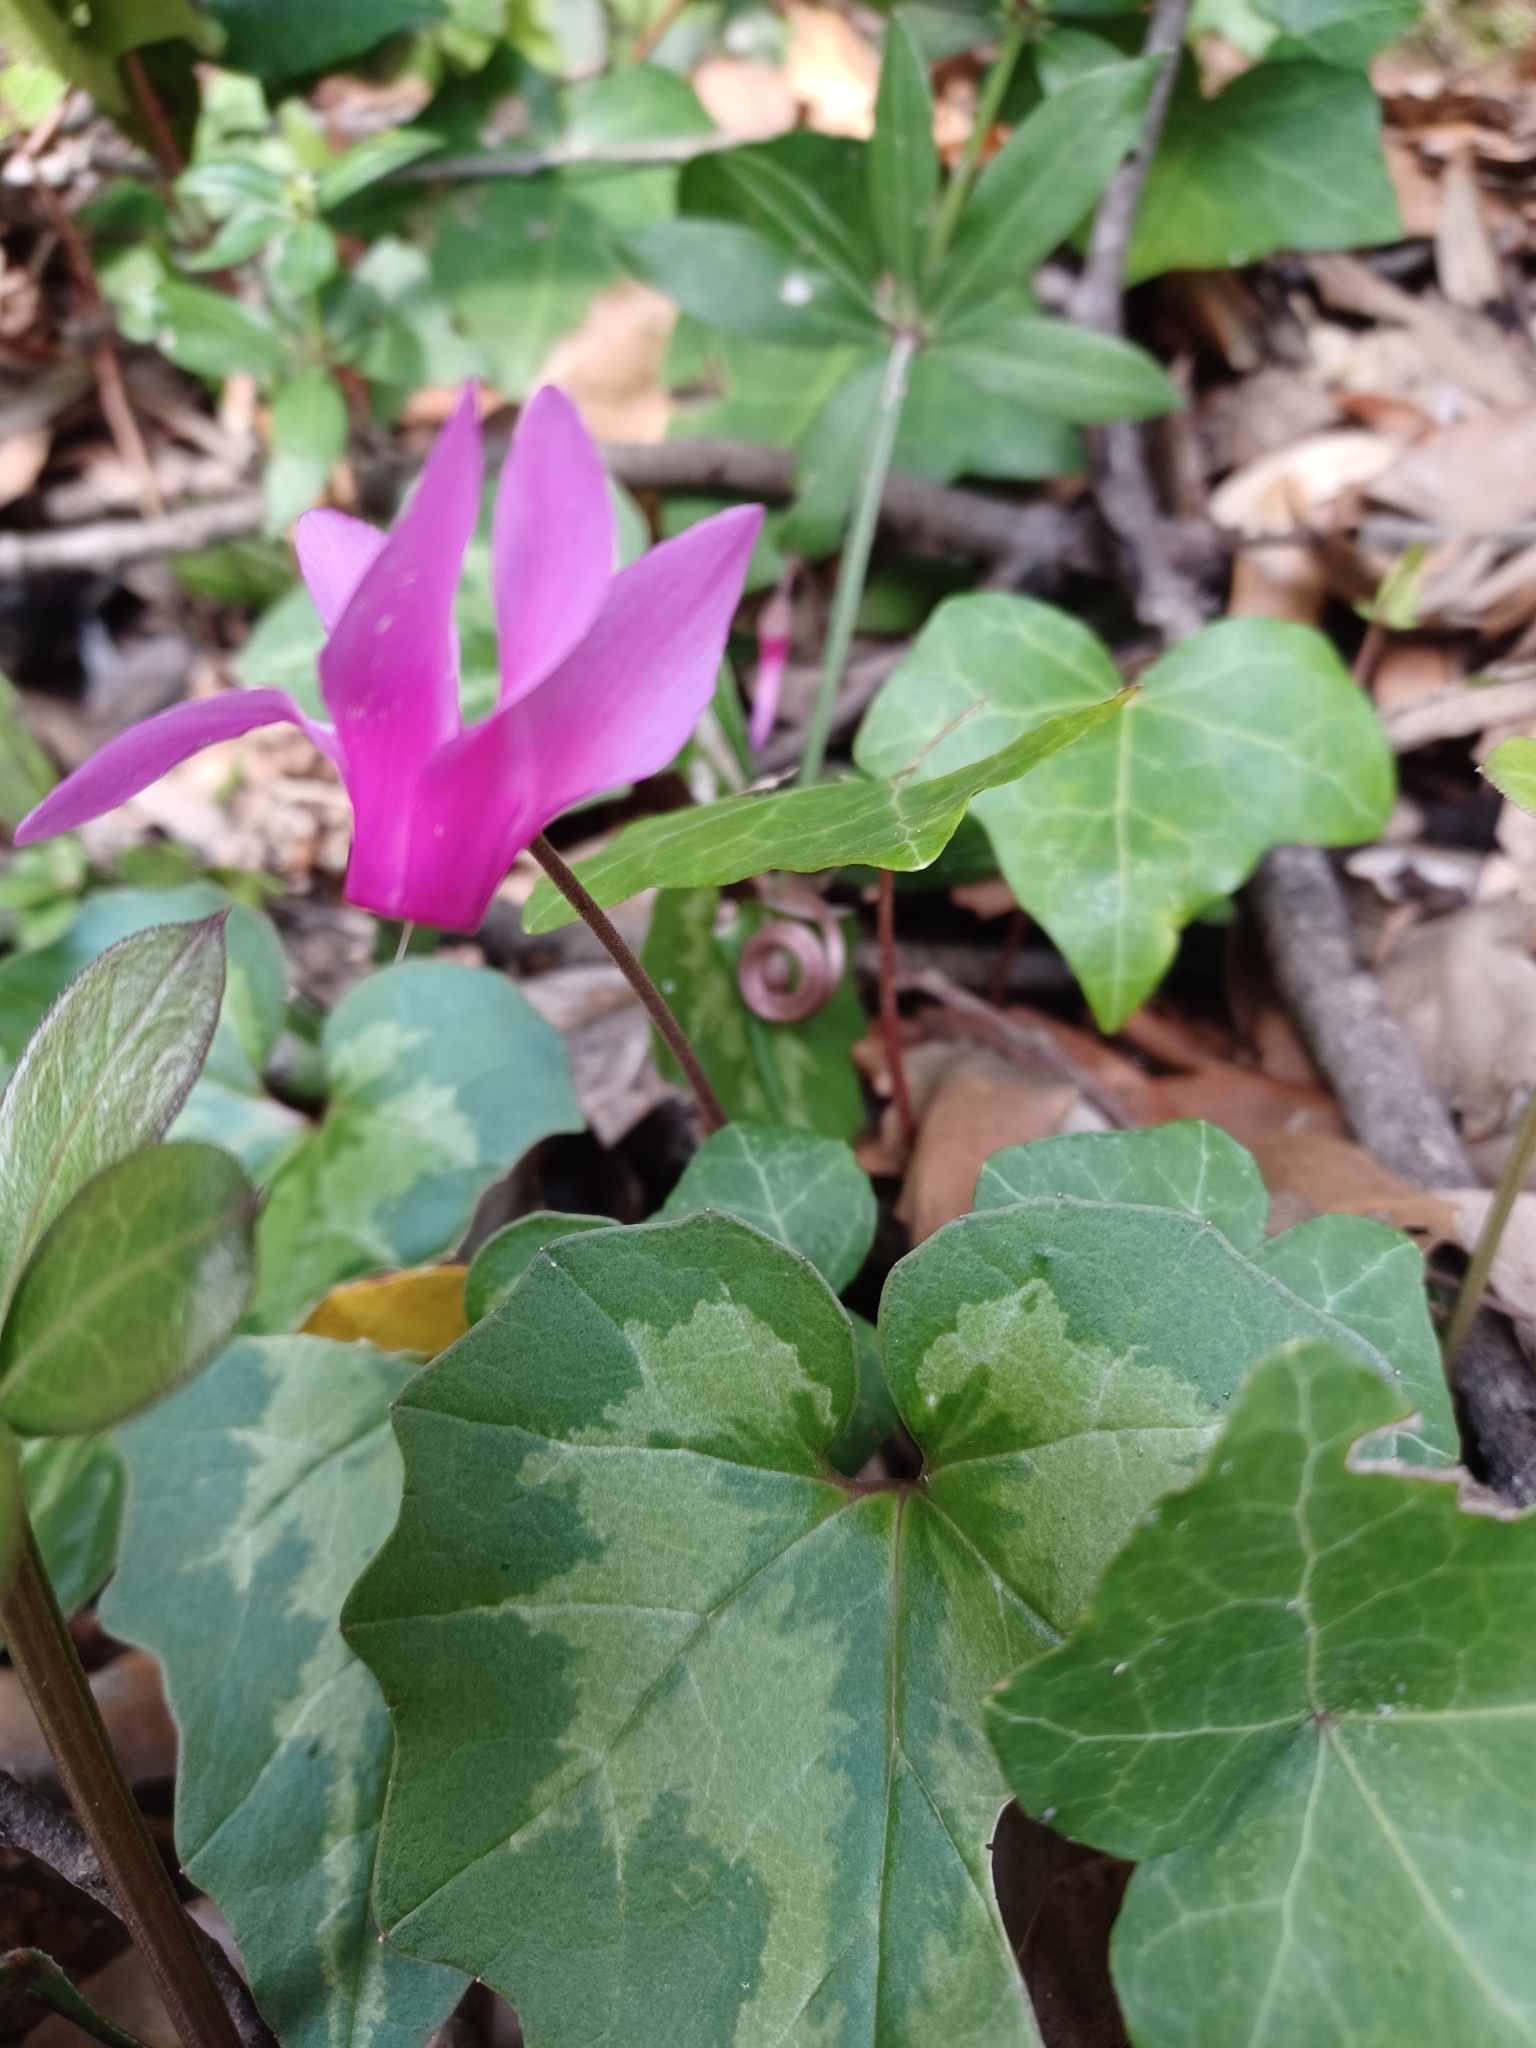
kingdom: Plantae
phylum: Tracheophyta
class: Magnoliopsida
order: Ericales
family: Primulaceae
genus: Cyclamen
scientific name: Cyclamen repandum
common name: Spring sowbread
